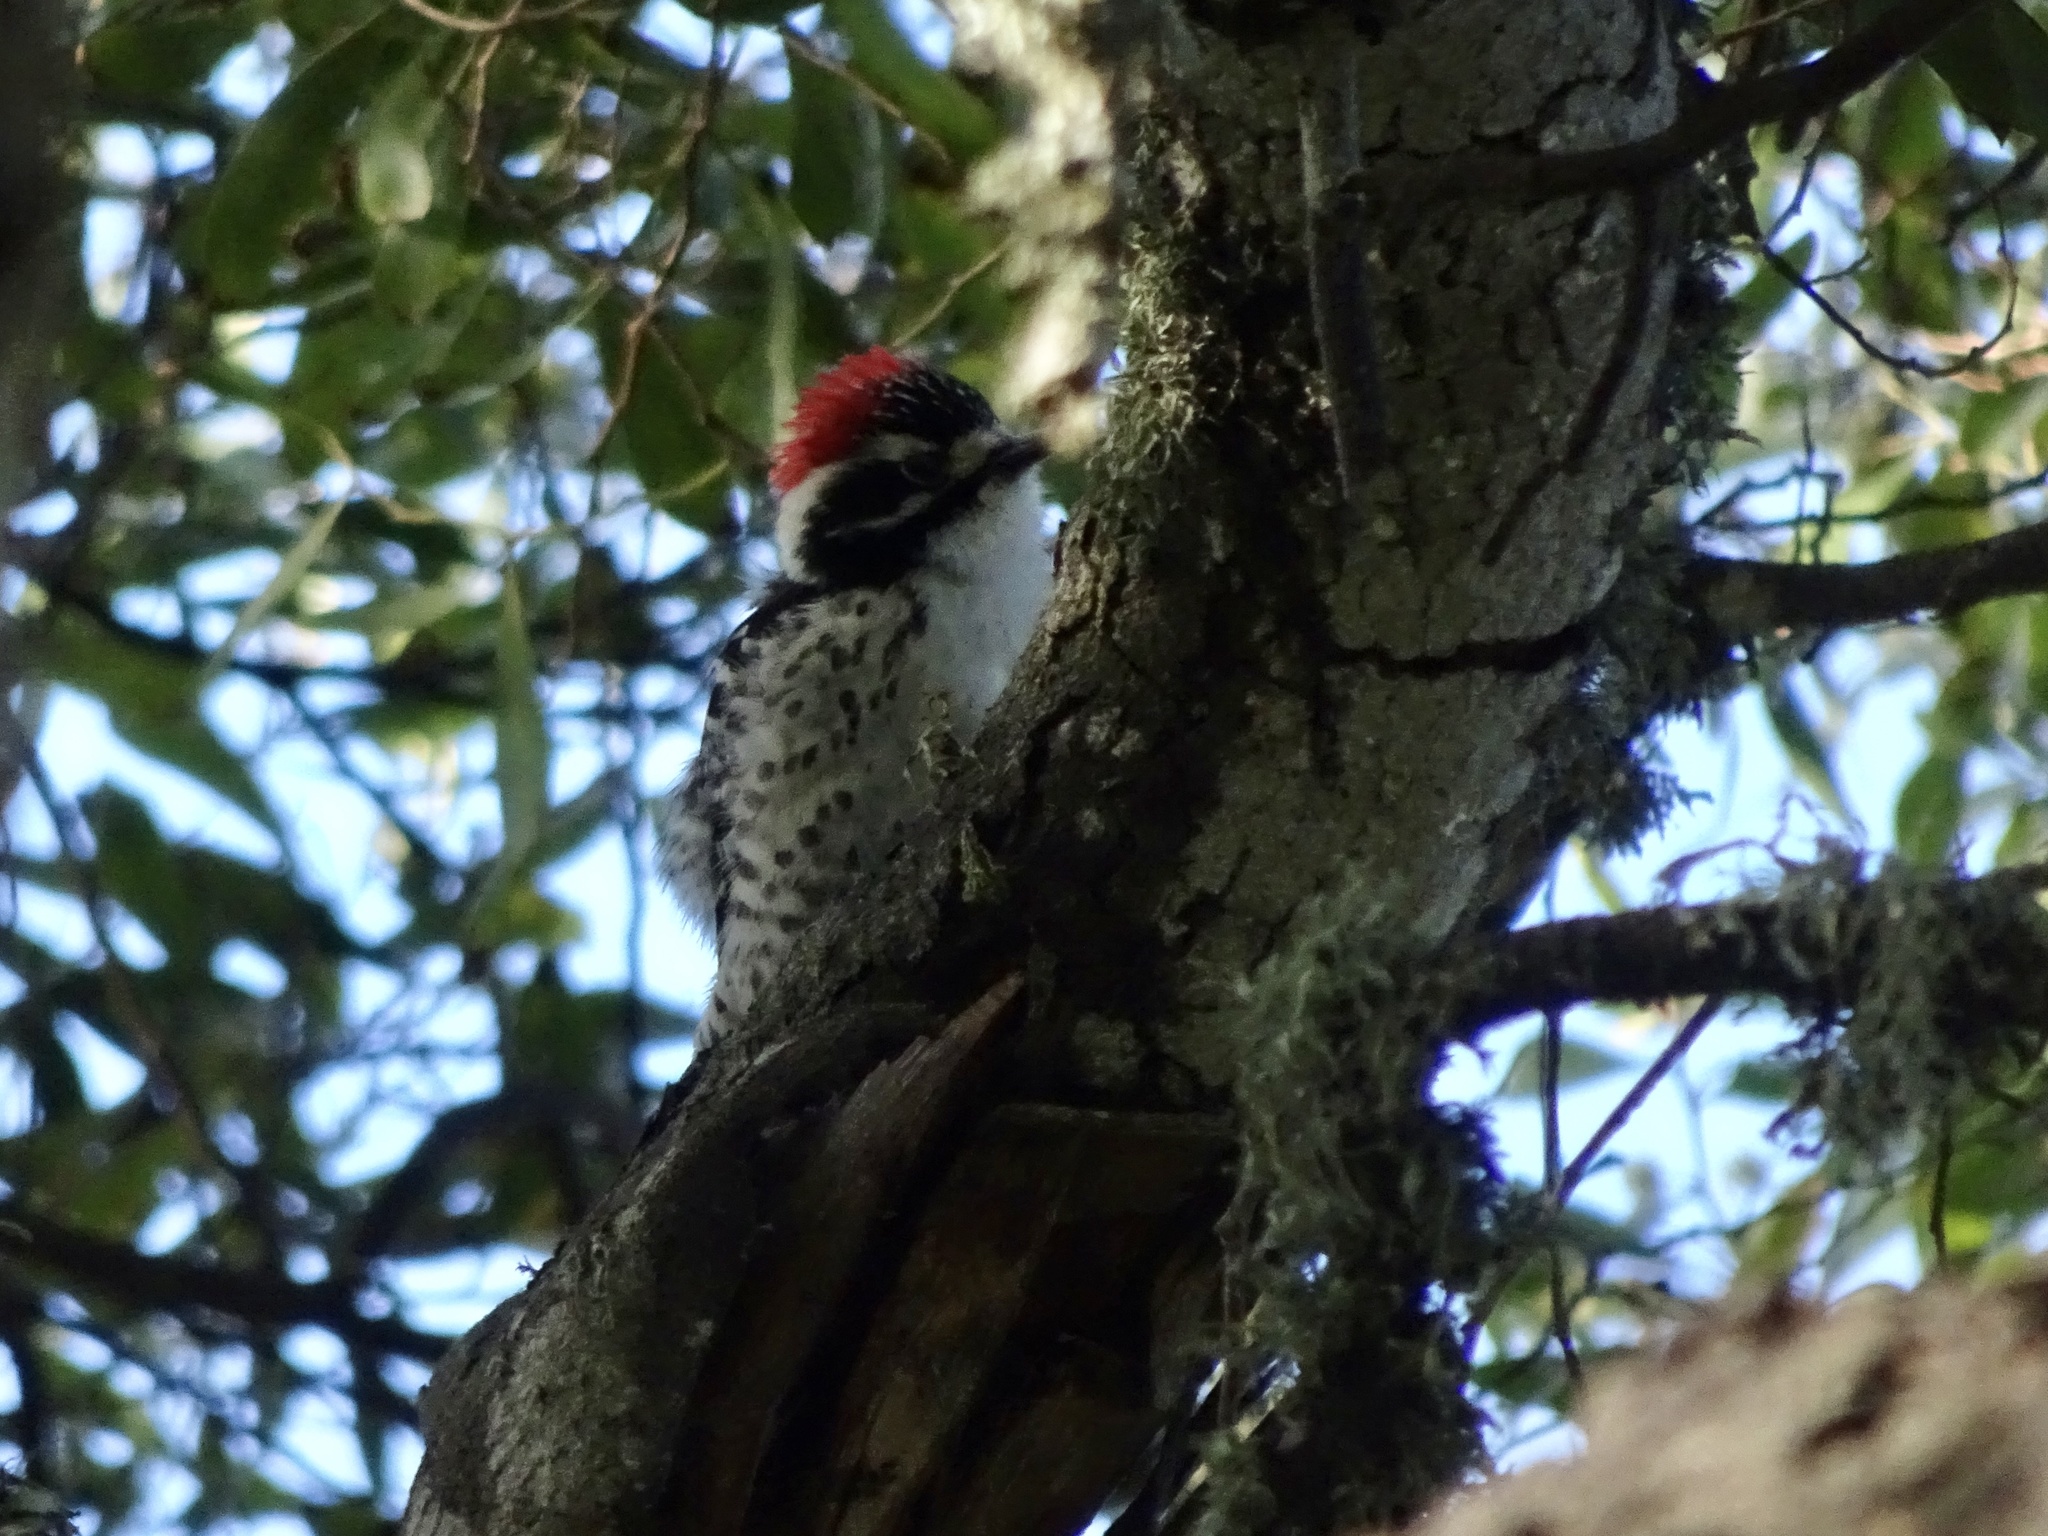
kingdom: Animalia
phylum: Chordata
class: Aves
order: Piciformes
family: Picidae
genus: Dryobates
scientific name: Dryobates nuttallii
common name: Nuttall's woodpecker
